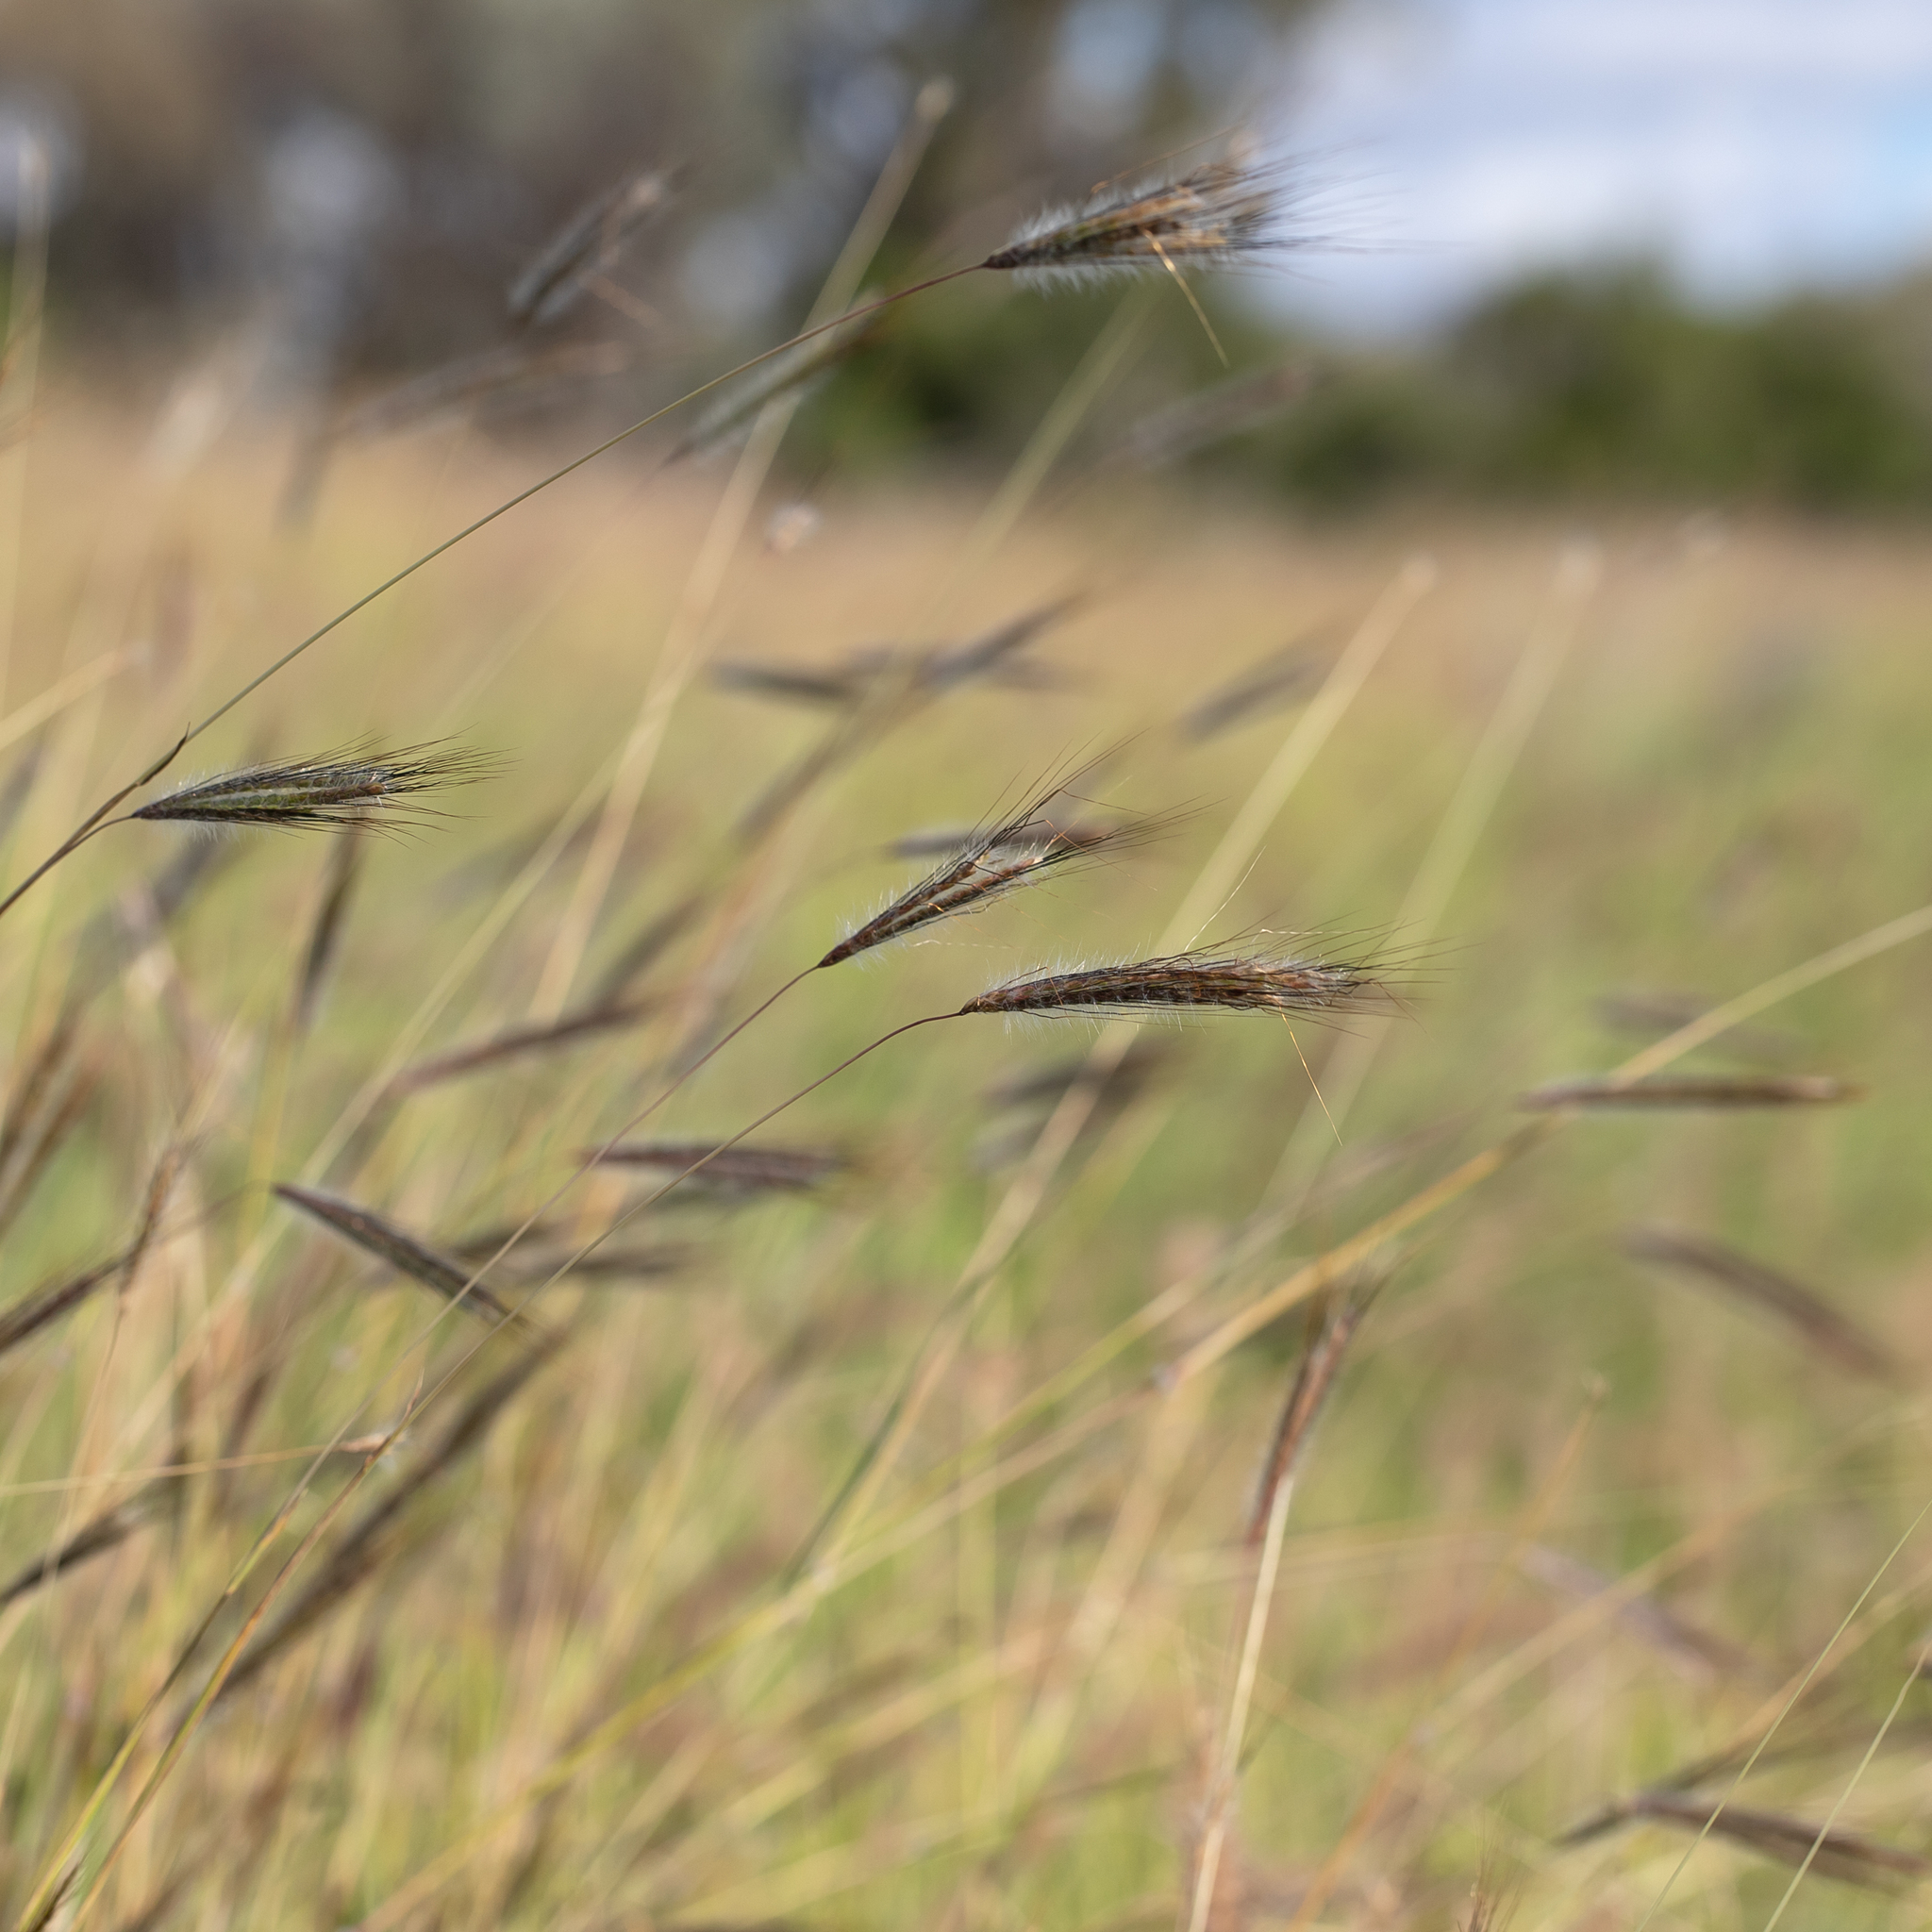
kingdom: Plantae
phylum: Tracheophyta
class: Liliopsida
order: Poales
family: Poaceae
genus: Dichanthium
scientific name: Dichanthium sericeum
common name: Silky bluestem
